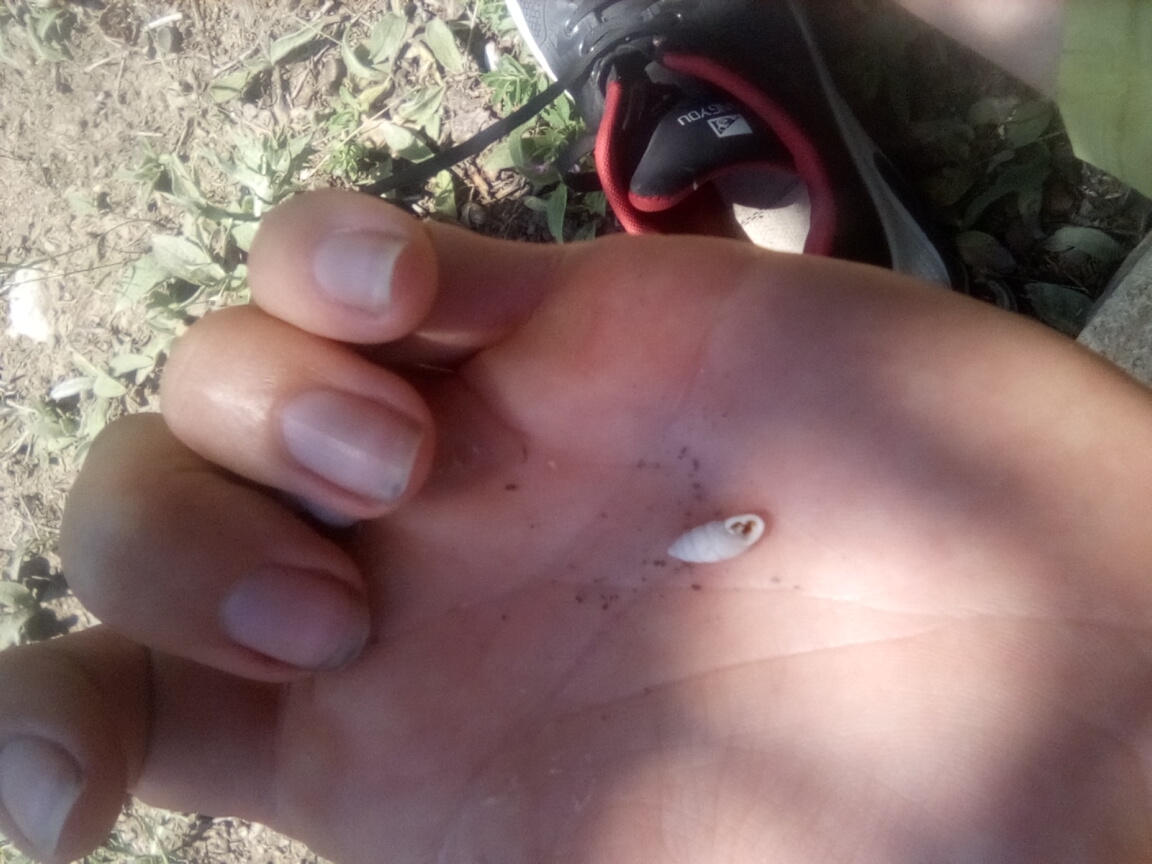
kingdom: Animalia
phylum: Mollusca
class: Gastropoda
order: Stylommatophora
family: Enidae
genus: Chondrula
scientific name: Chondrula tridens
